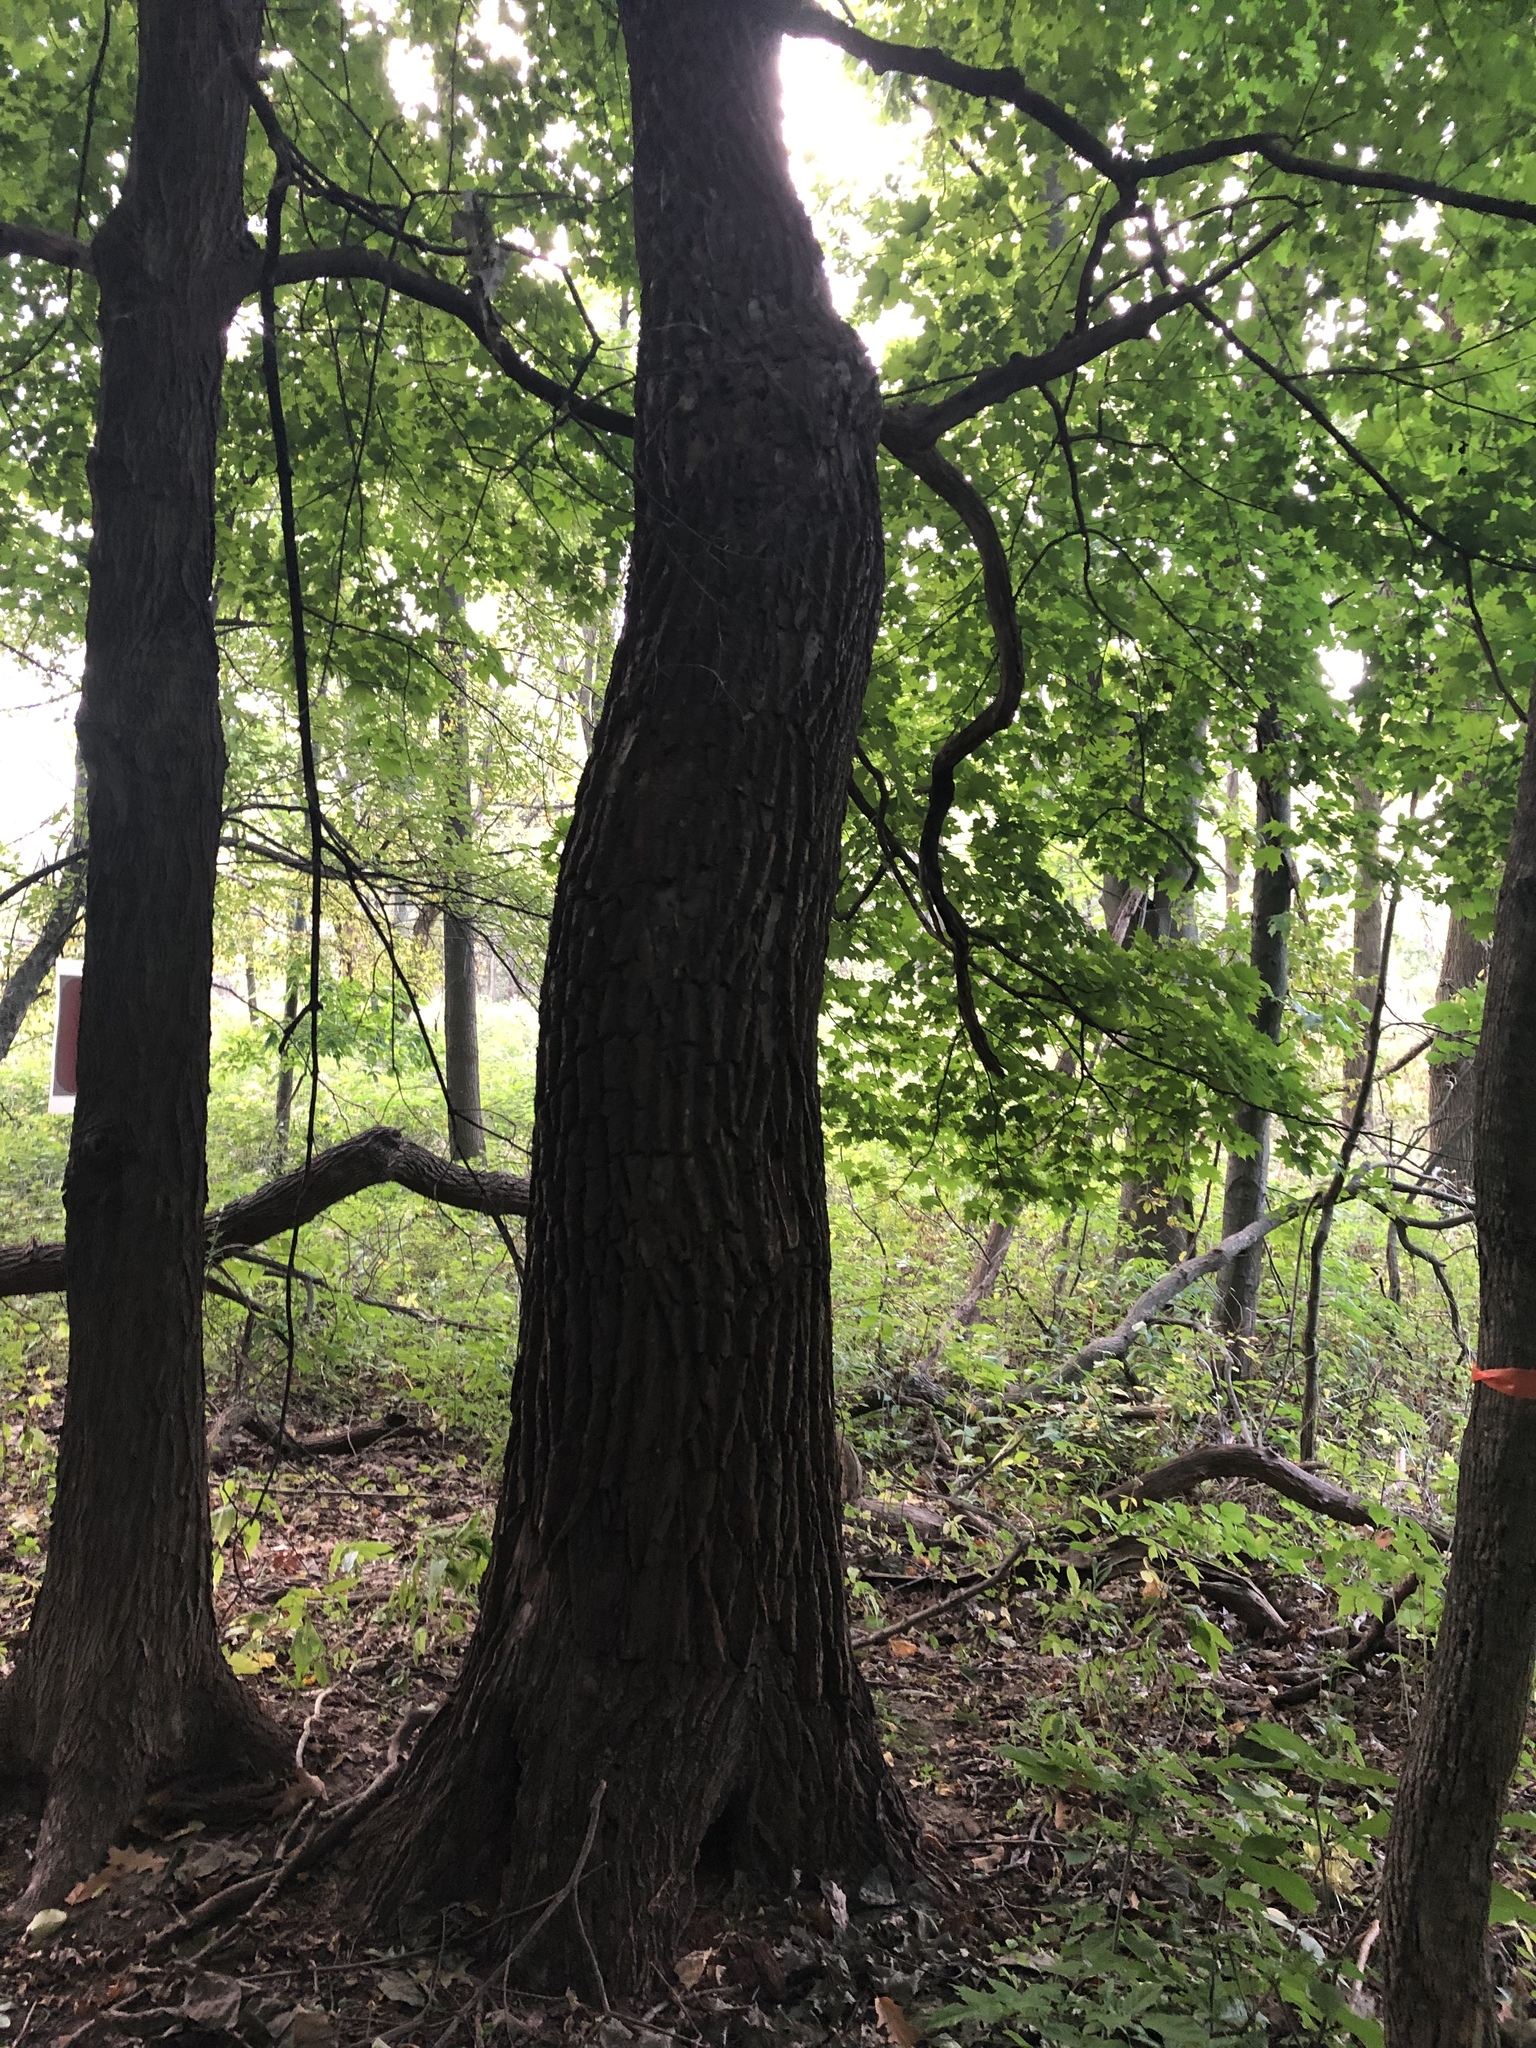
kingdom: Plantae
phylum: Tracheophyta
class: Magnoliopsida
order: Laurales
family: Lauraceae
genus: Sassafras
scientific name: Sassafras albidum
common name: Sassafras
